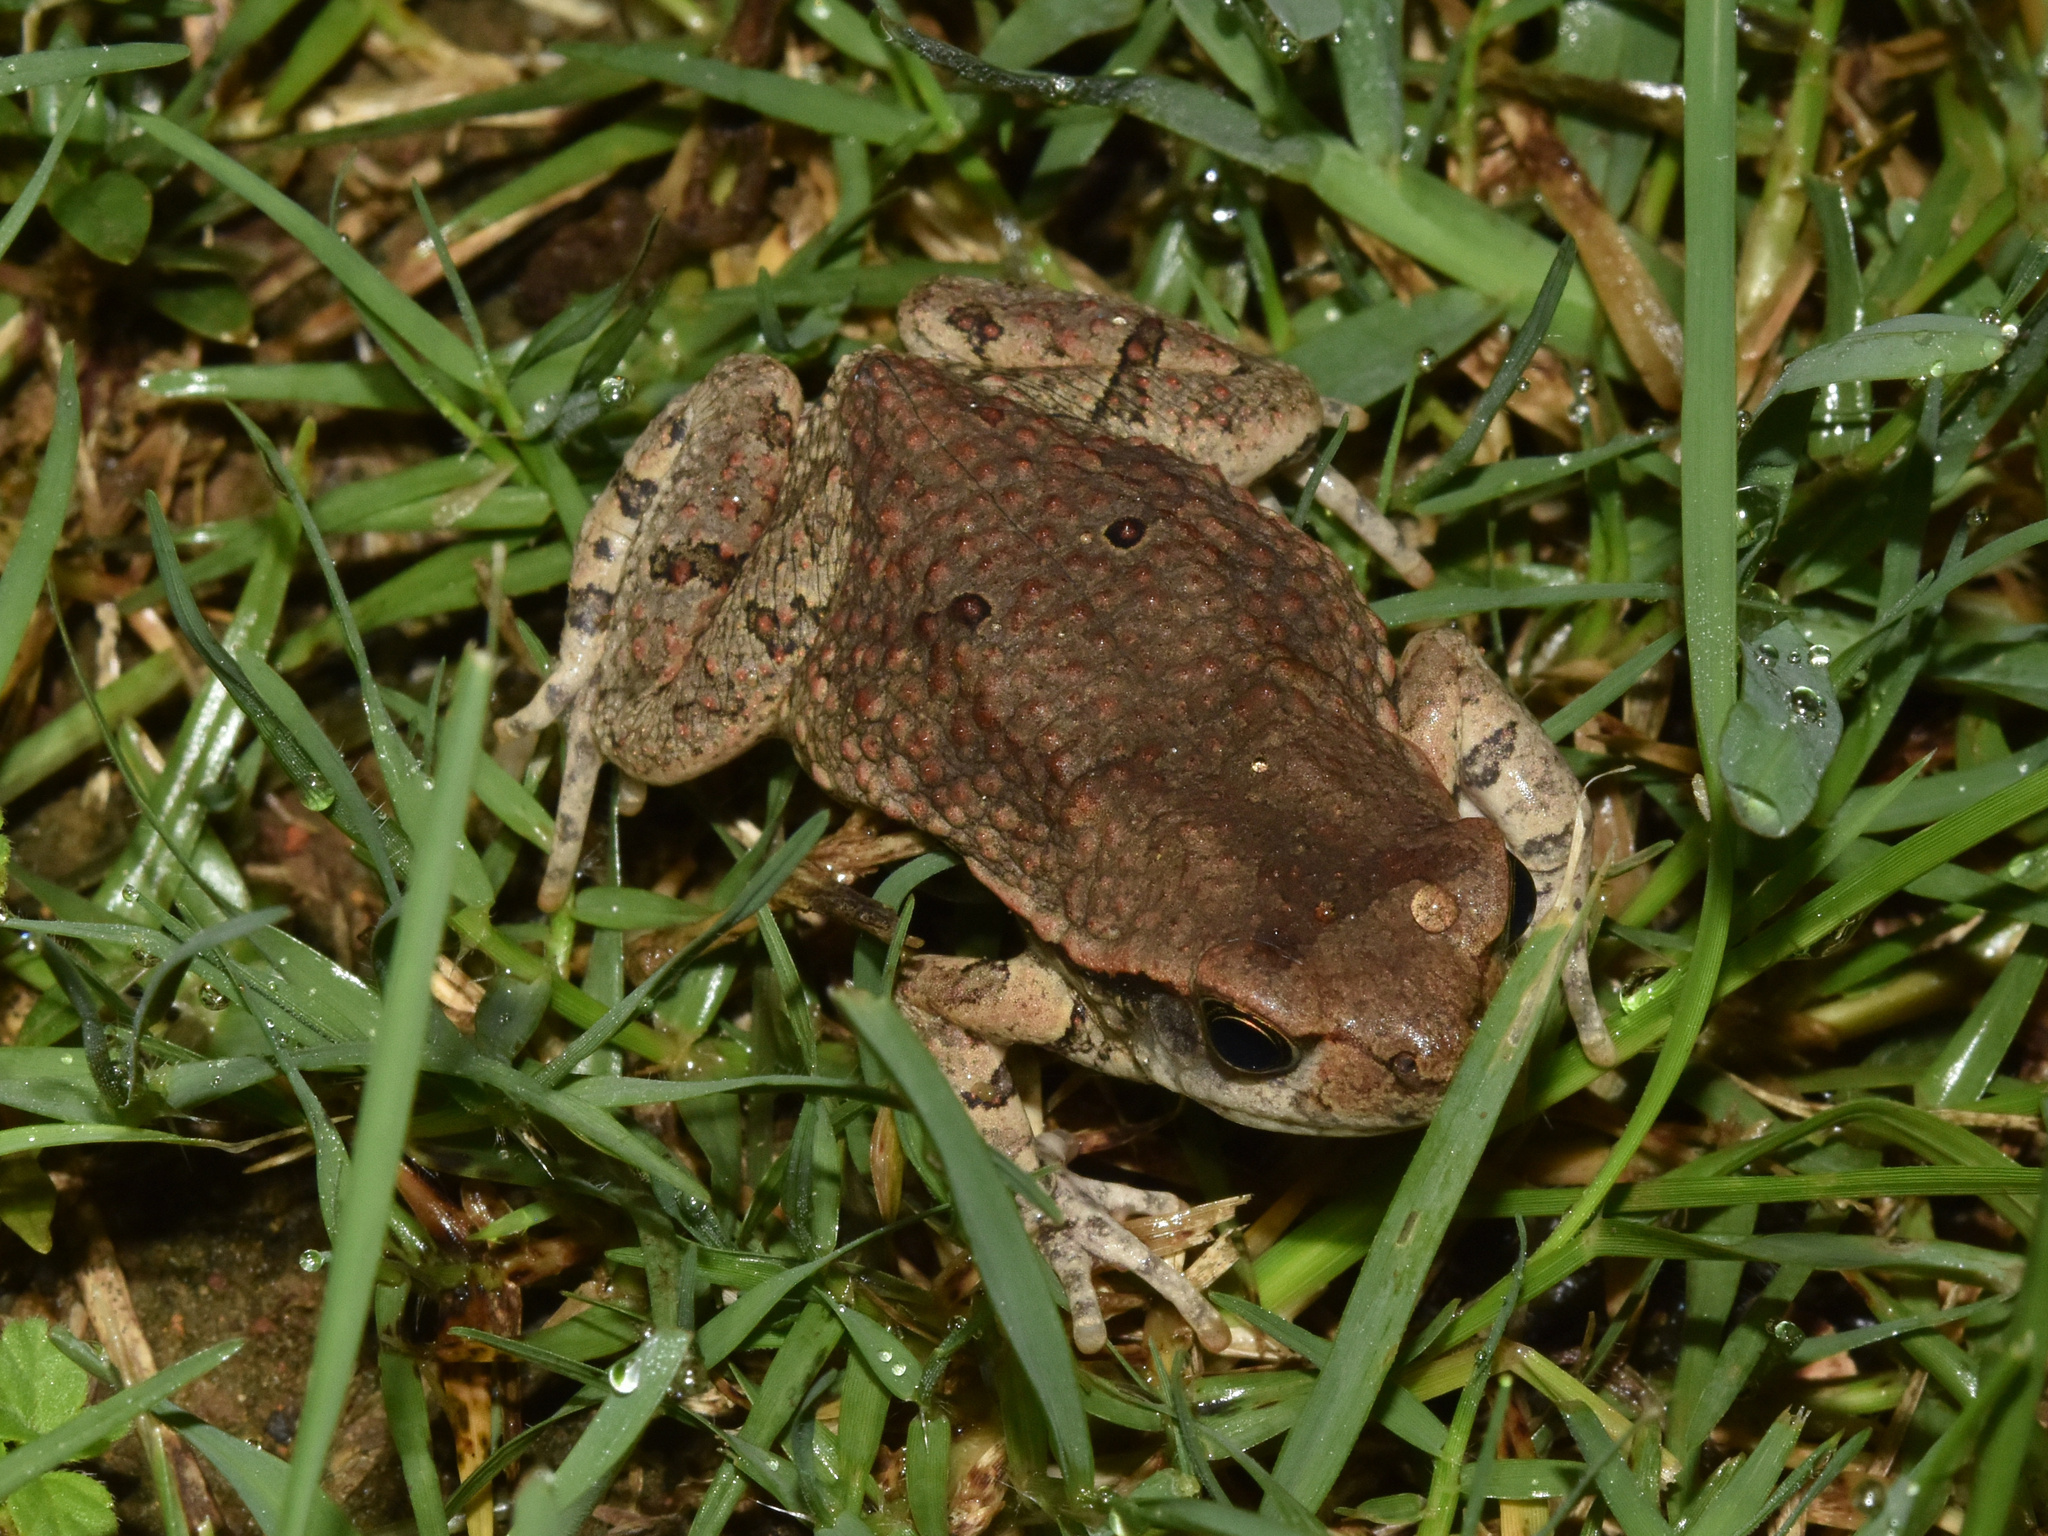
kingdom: Animalia
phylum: Chordata
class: Amphibia
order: Anura
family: Bufonidae
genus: Schismaderma
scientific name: Schismaderma carens
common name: African split-skin toad
